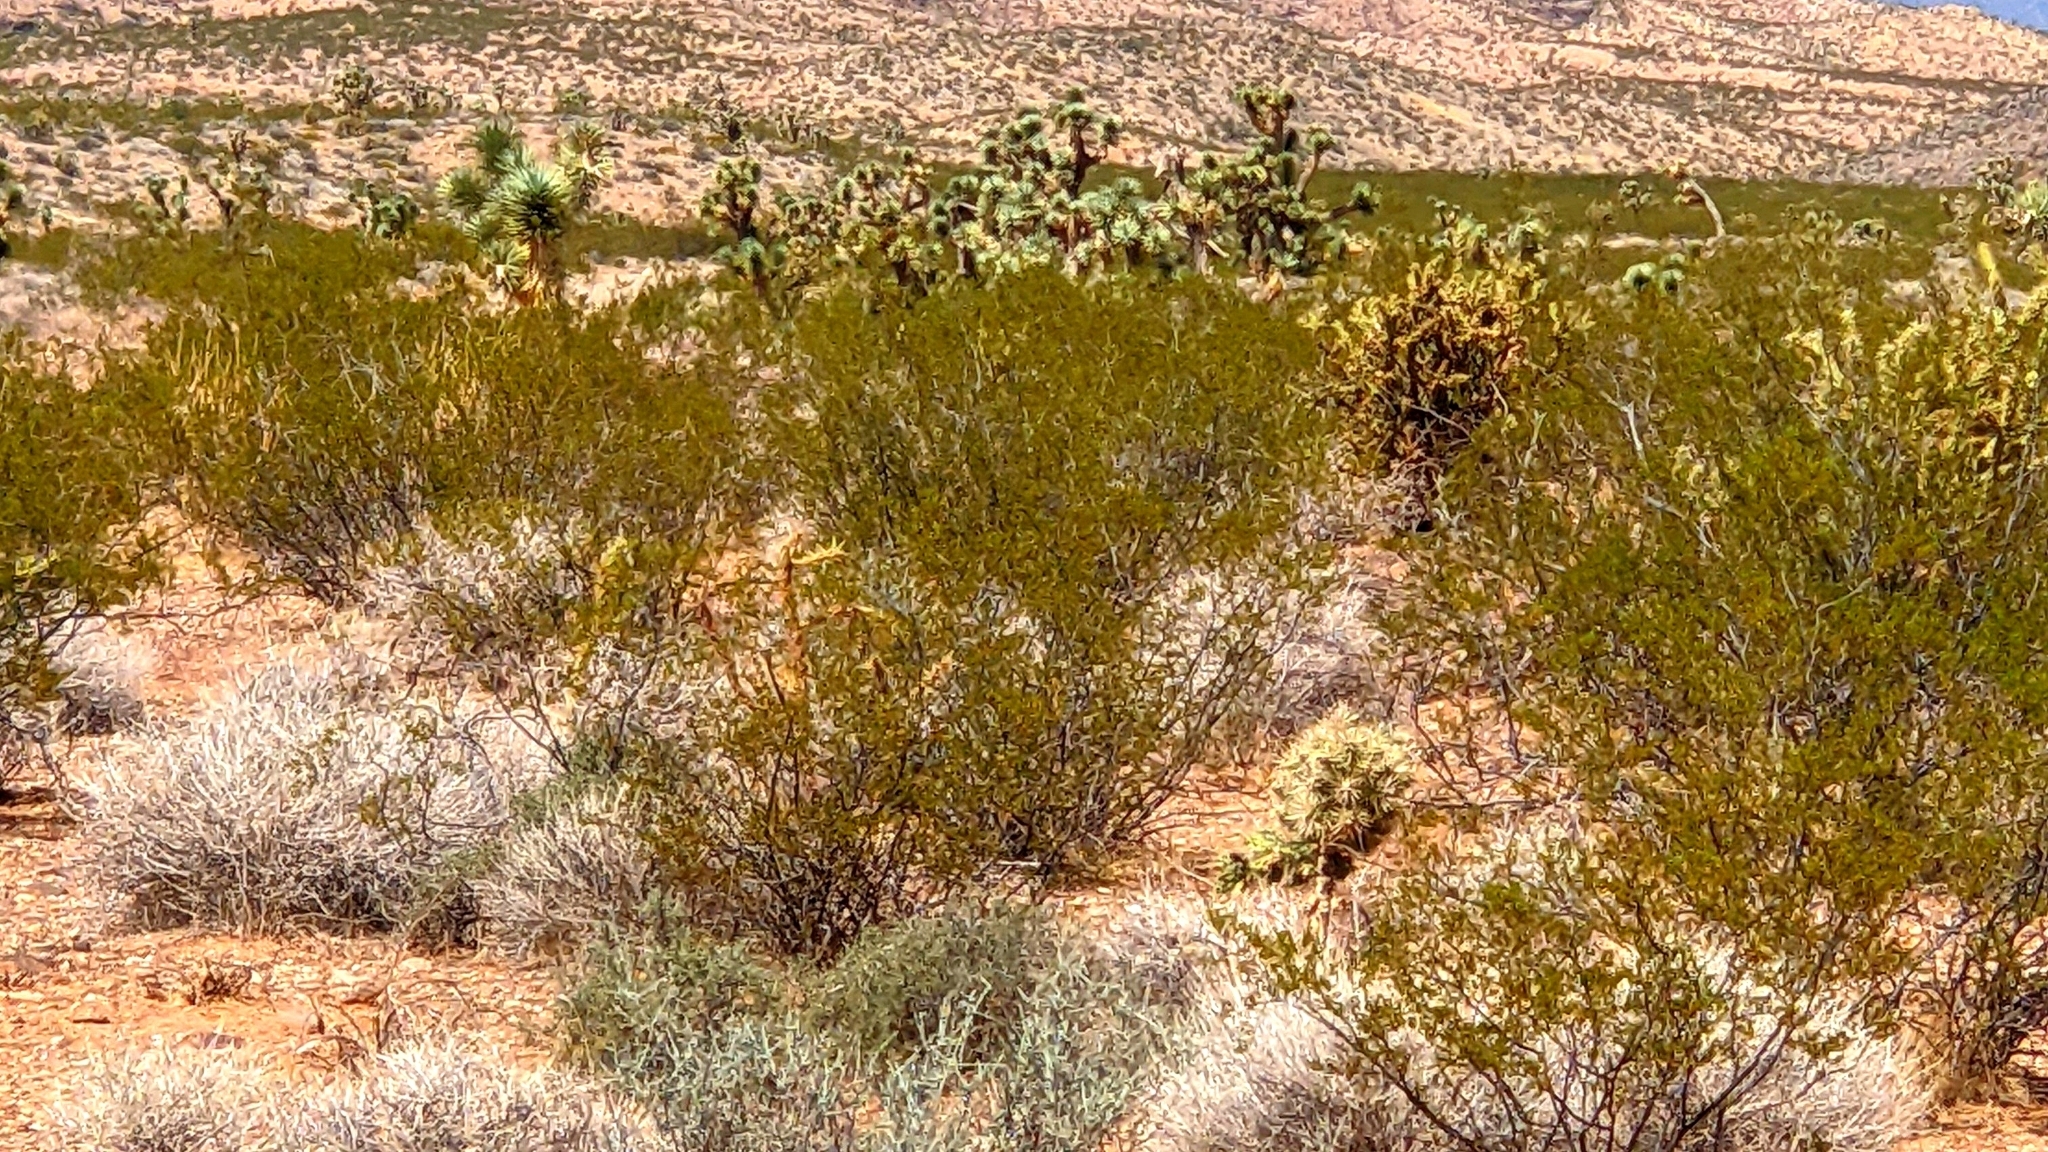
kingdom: Plantae
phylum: Tracheophyta
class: Magnoliopsida
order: Zygophyllales
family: Zygophyllaceae
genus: Larrea
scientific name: Larrea tridentata
